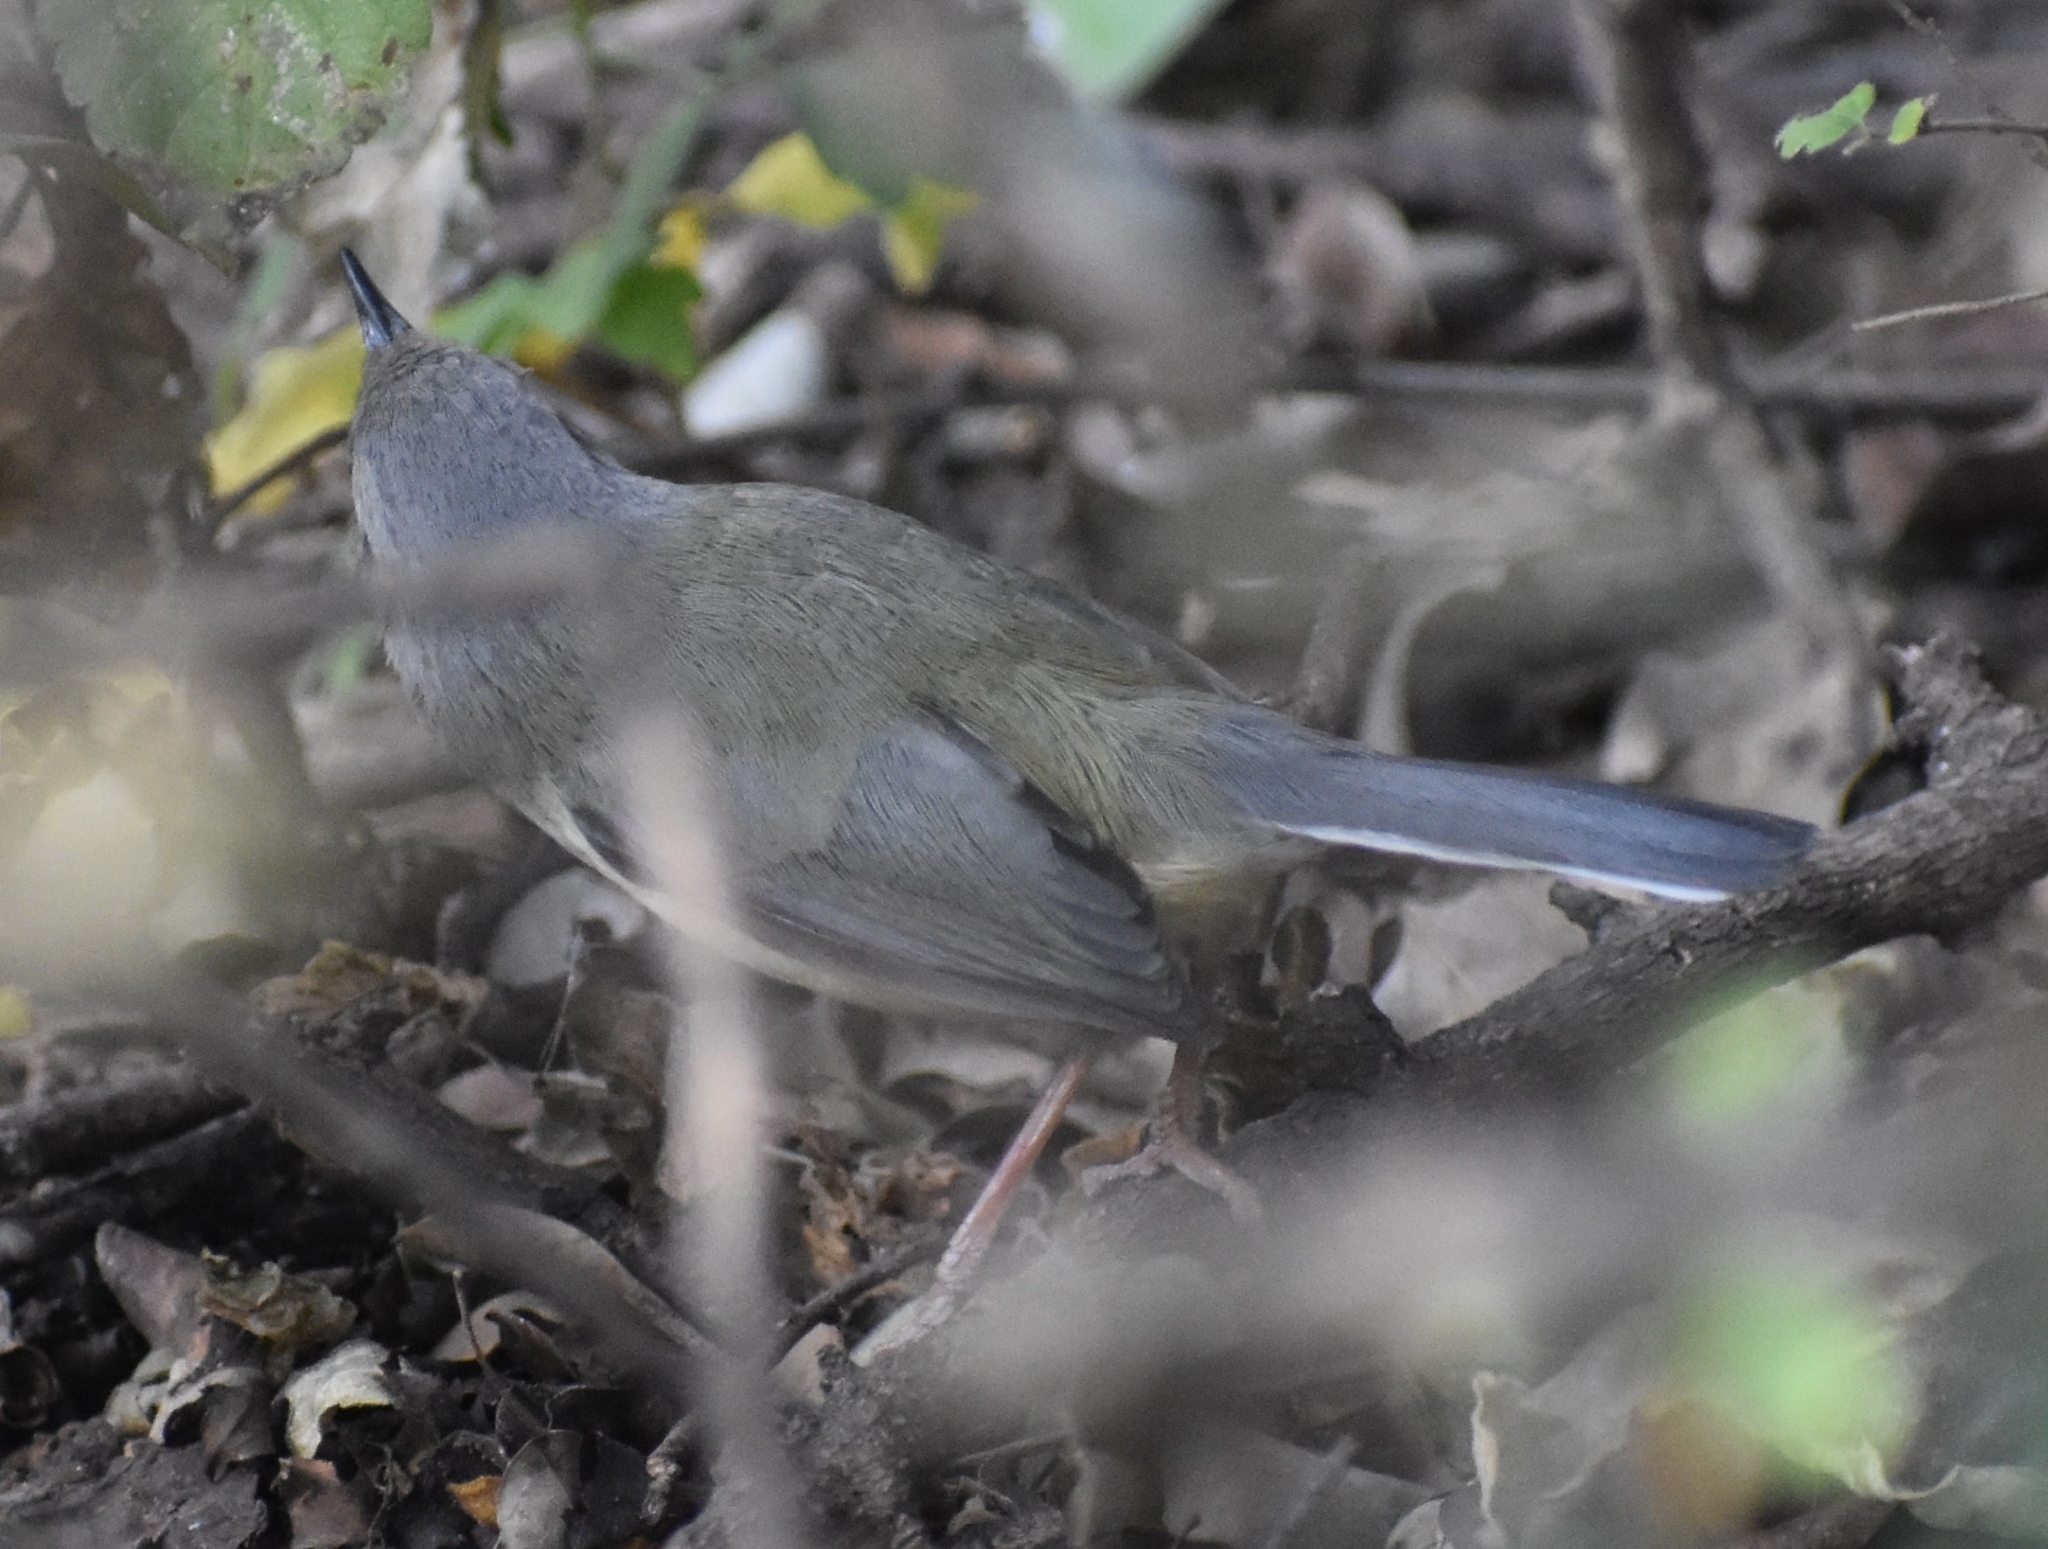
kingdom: Animalia
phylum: Chordata
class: Aves
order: Passeriformes
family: Cisticolidae
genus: Apalis
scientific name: Apalis thoracica
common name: Bar-throated apalis
